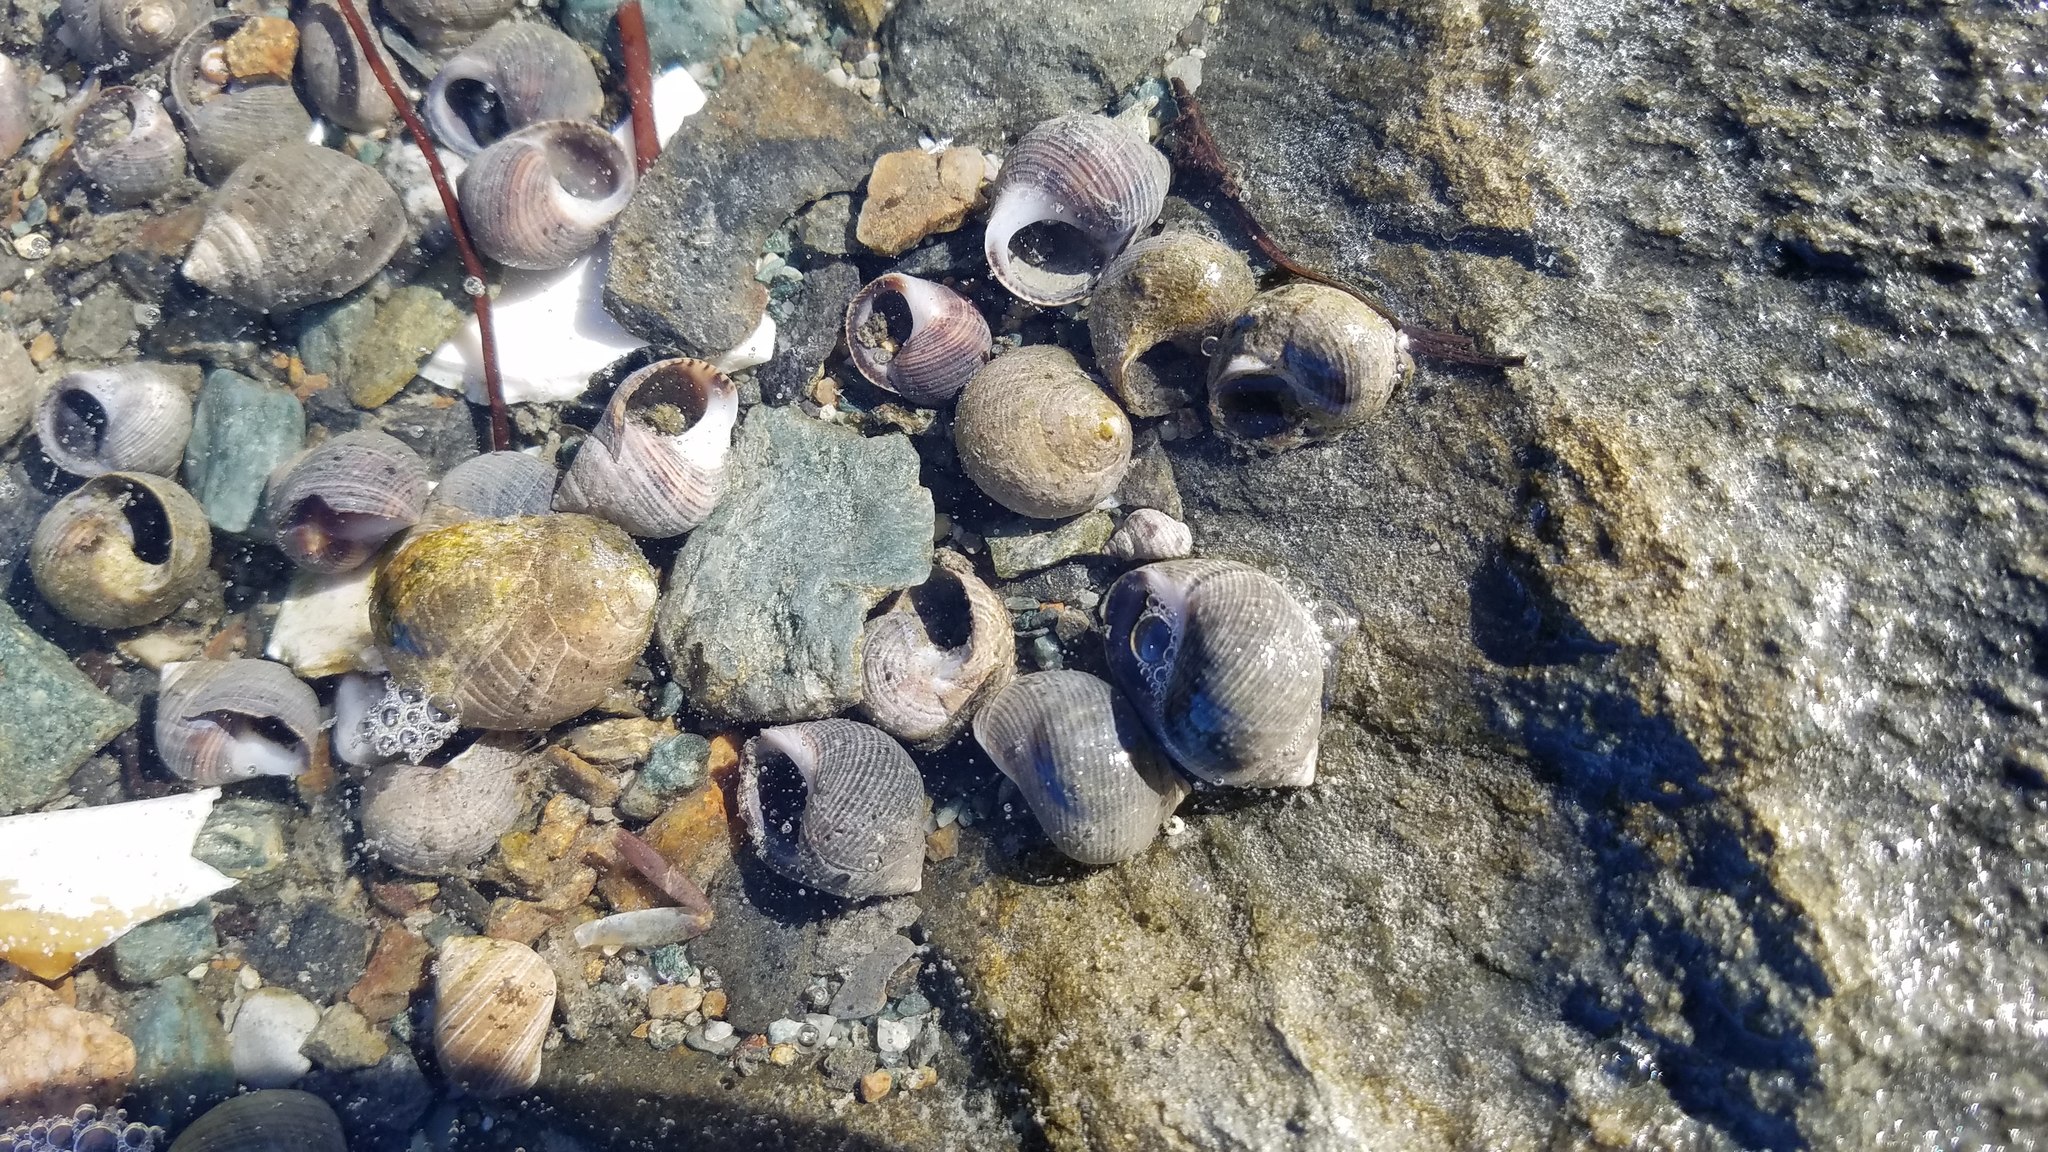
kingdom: Animalia
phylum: Mollusca
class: Gastropoda
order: Littorinimorpha
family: Littorinidae
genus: Littorina
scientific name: Littorina littorea
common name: Common periwinkle
